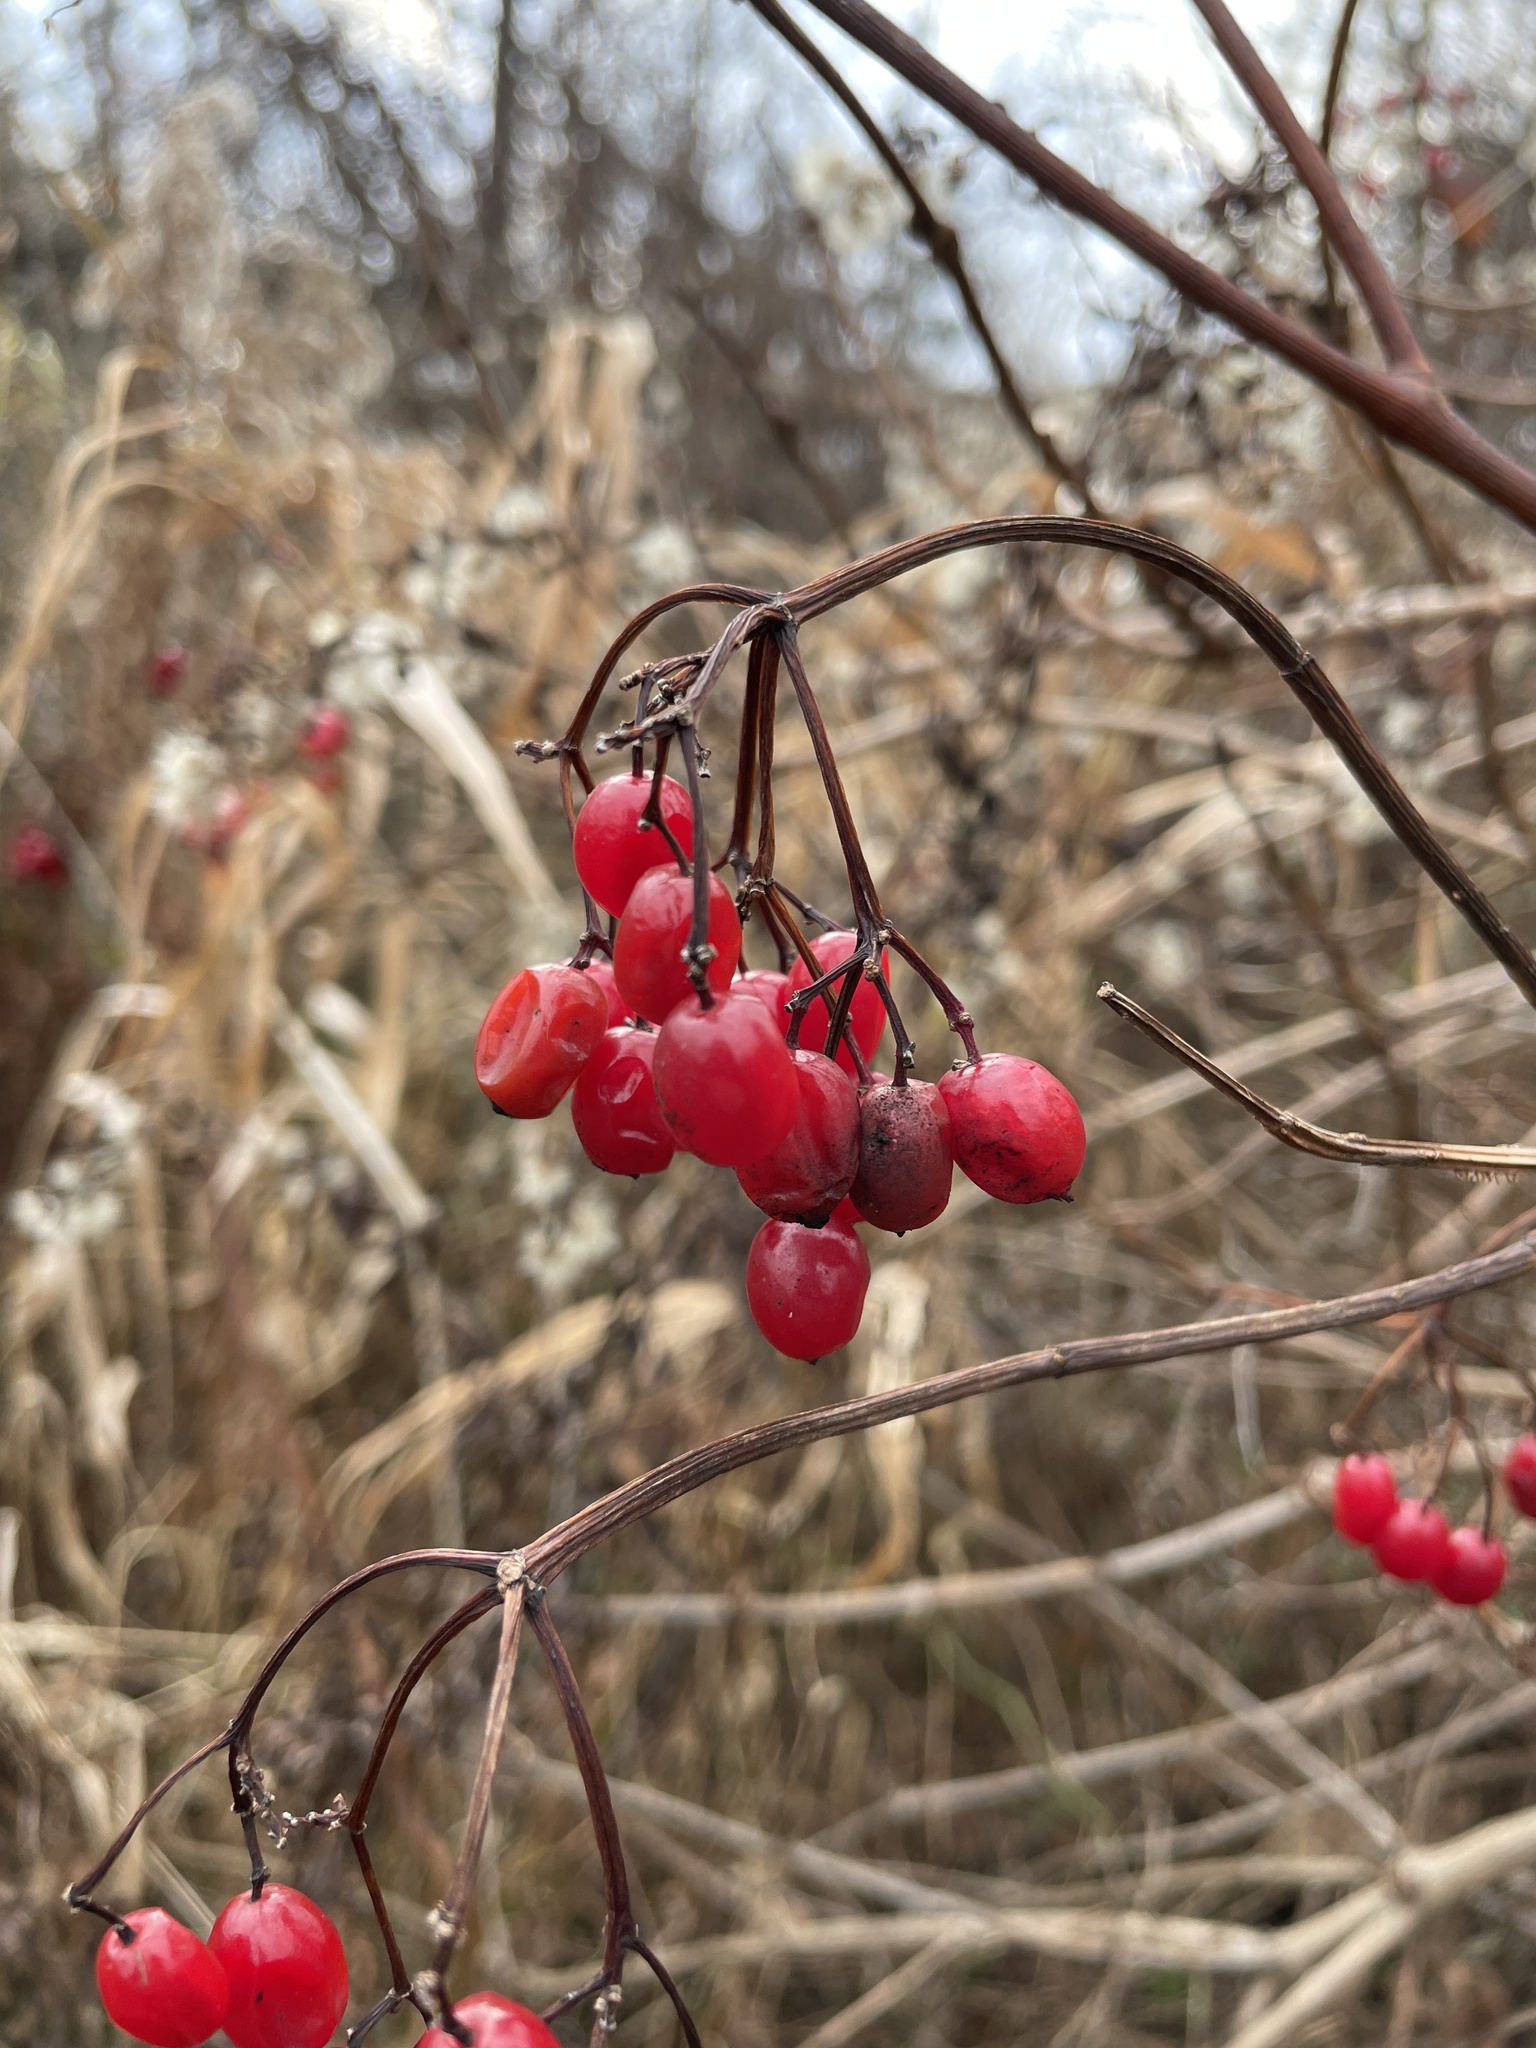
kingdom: Plantae
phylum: Tracheophyta
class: Magnoliopsida
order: Dipsacales
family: Viburnaceae
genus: Viburnum
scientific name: Viburnum opulus
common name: Guelder-rose
